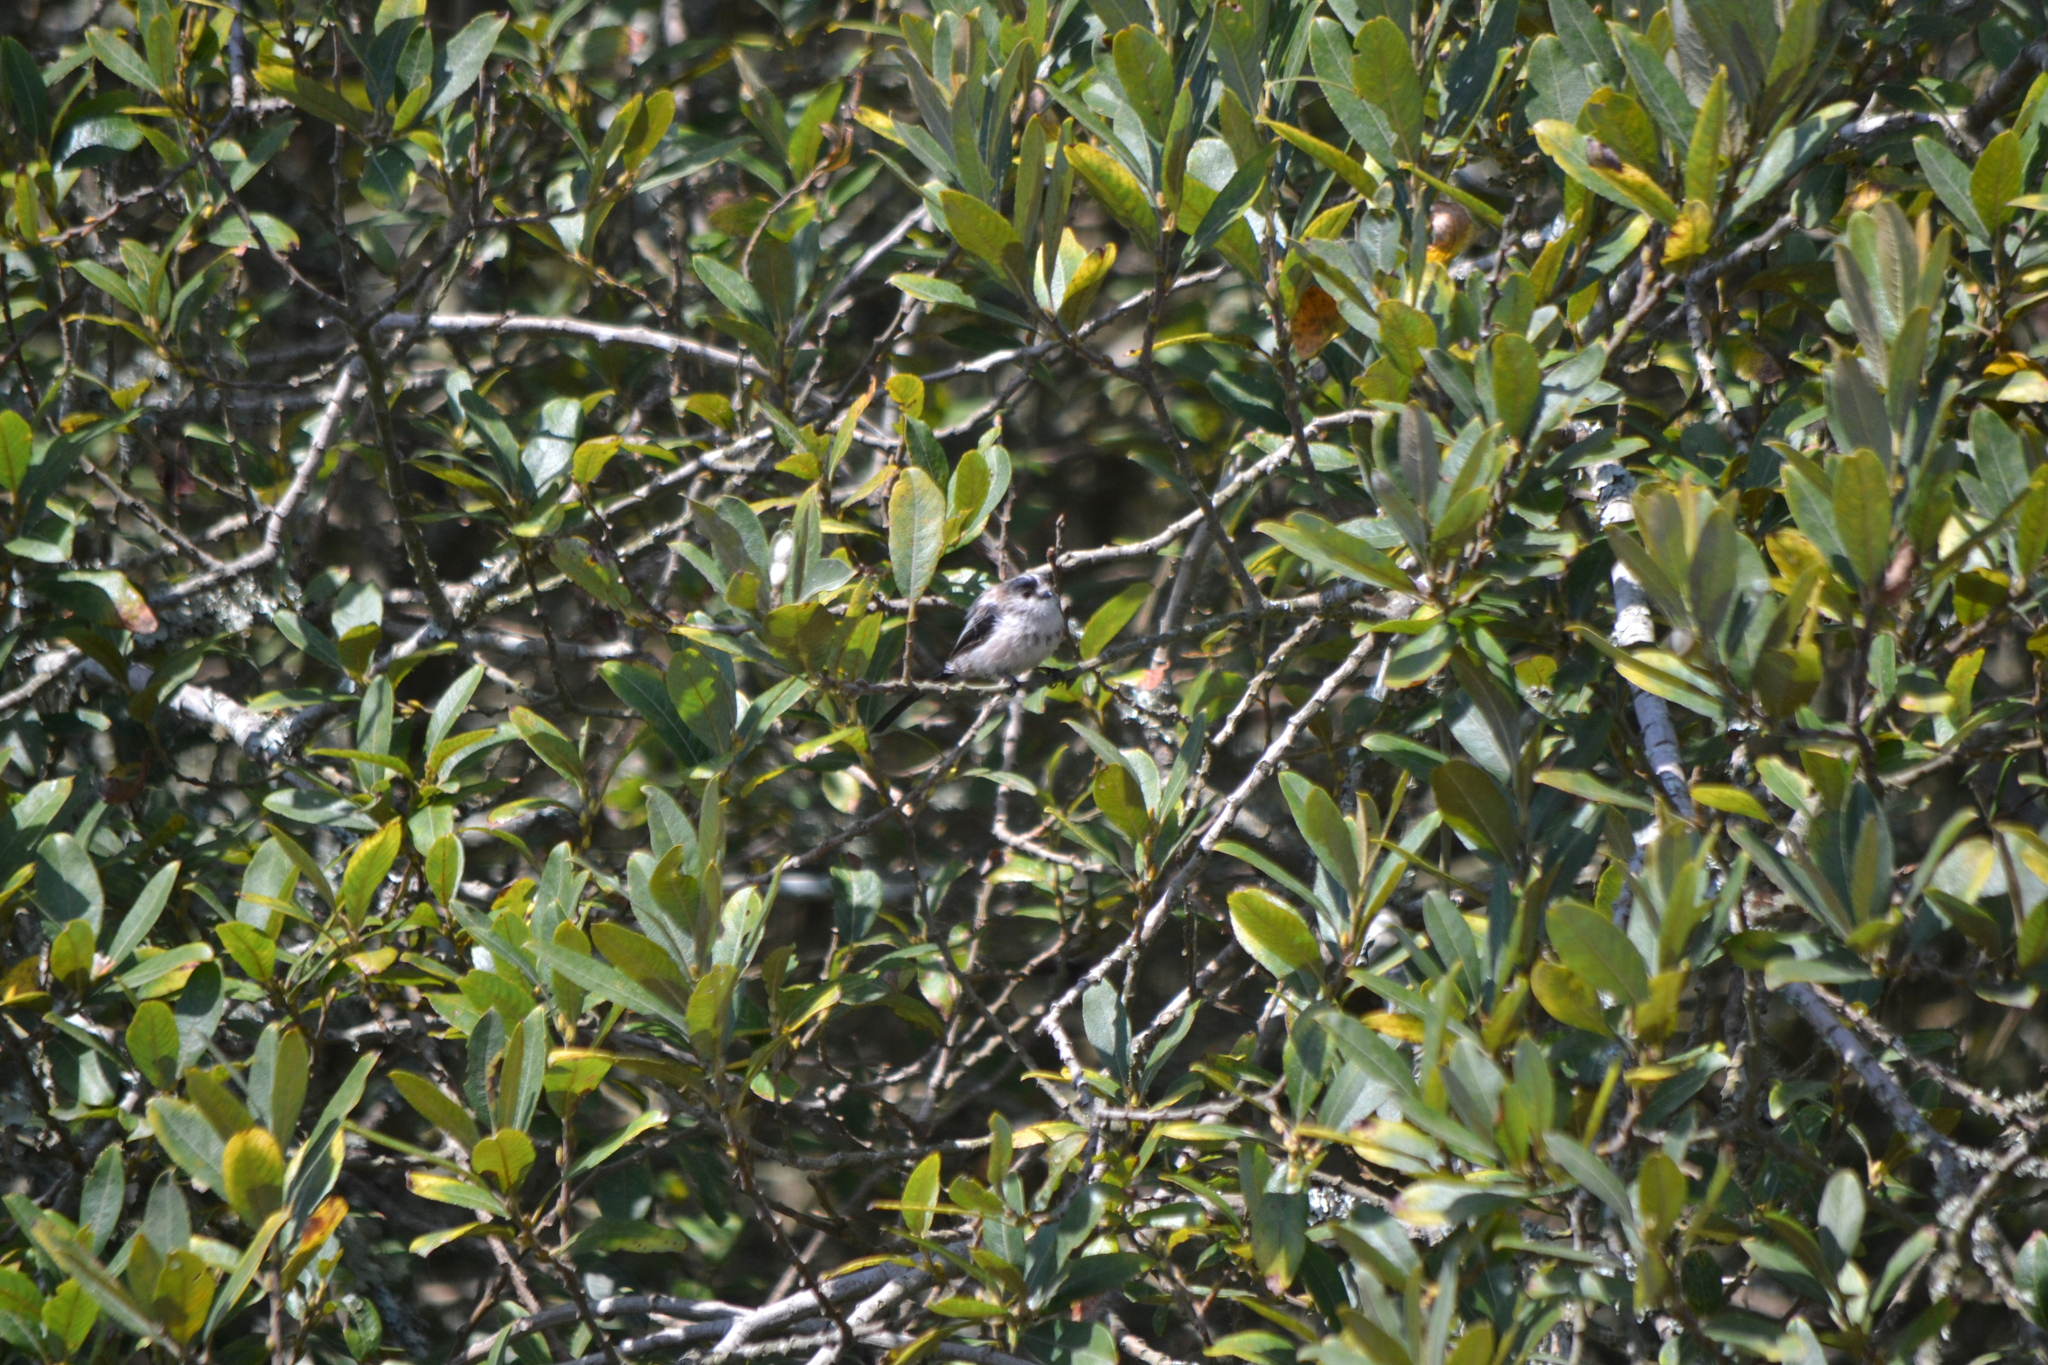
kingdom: Animalia
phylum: Chordata
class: Aves
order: Passeriformes
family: Aegithalidae
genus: Aegithalos
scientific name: Aegithalos caudatus
